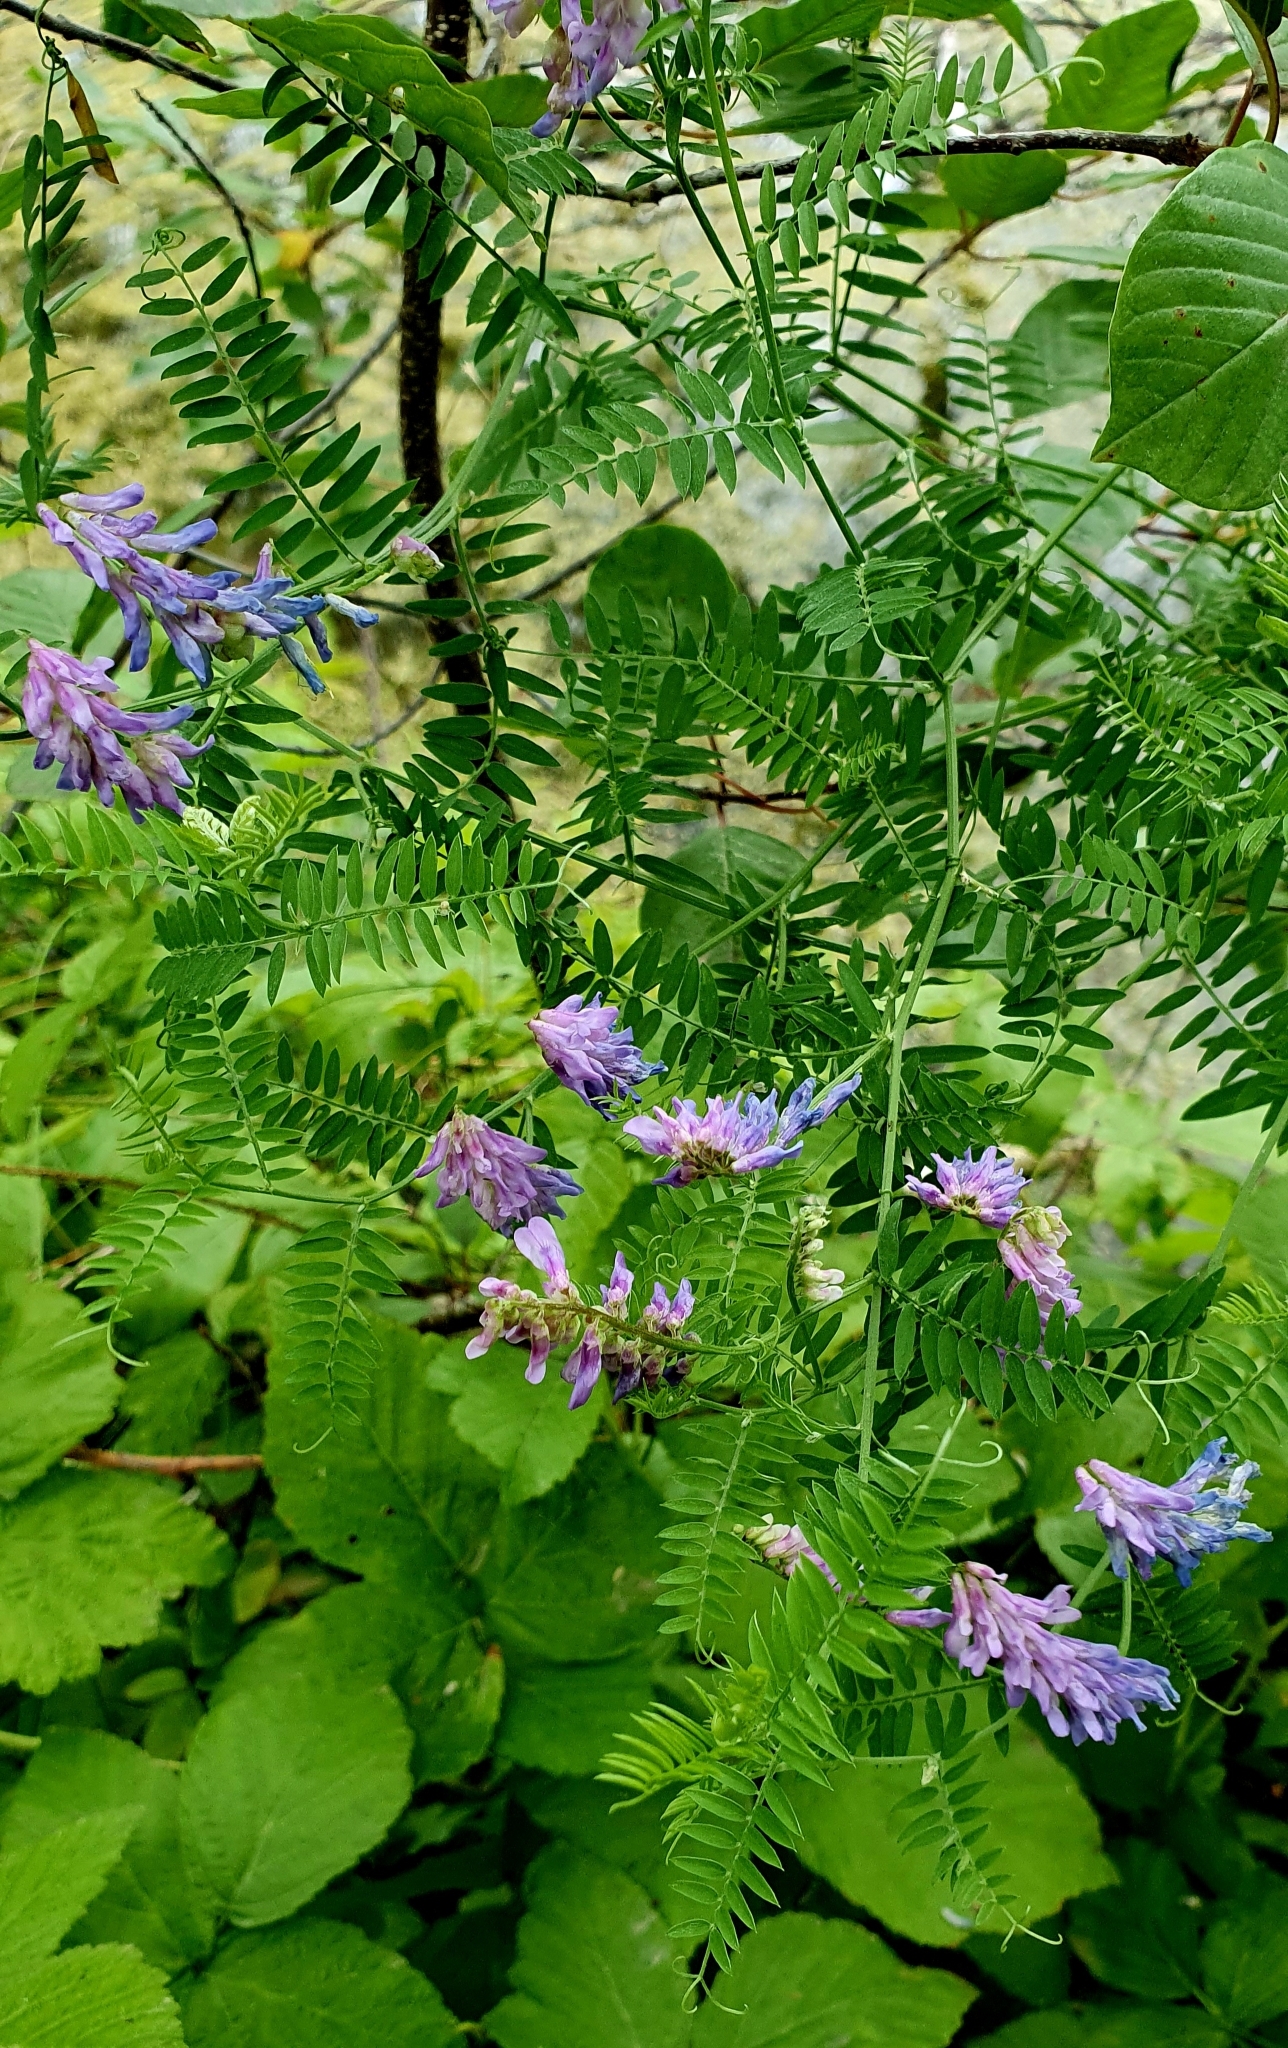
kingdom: Plantae
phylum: Tracheophyta
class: Magnoliopsida
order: Fabales
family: Fabaceae
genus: Vicia
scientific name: Vicia cracca
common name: Bird vetch
